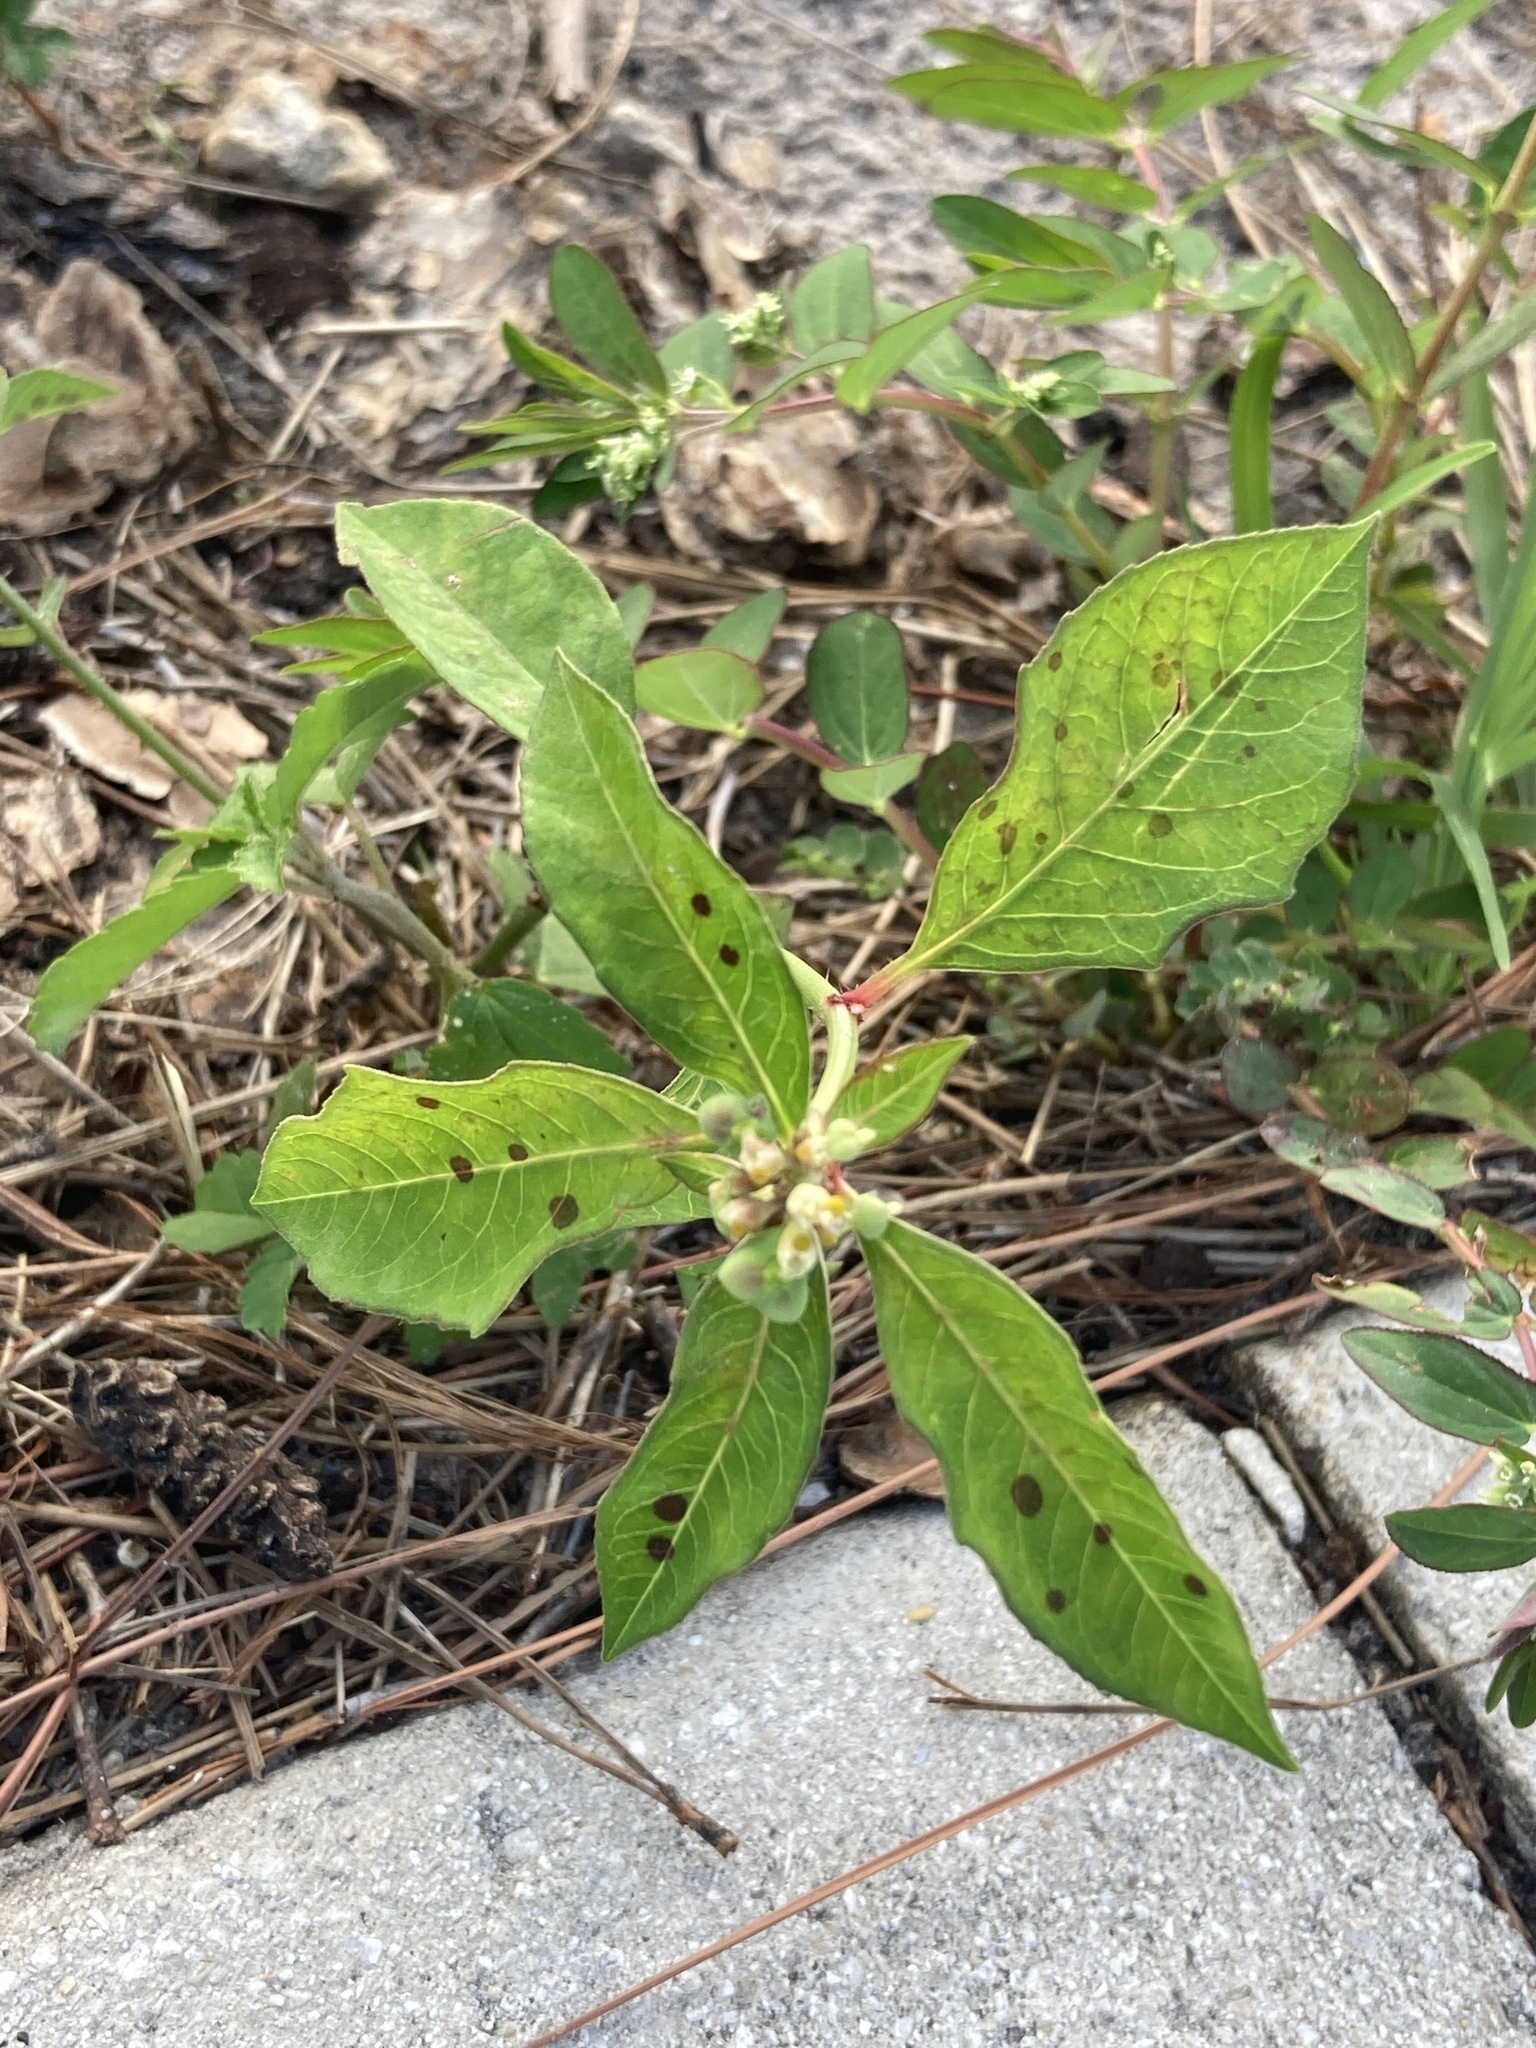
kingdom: Plantae
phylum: Tracheophyta
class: Magnoliopsida
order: Malpighiales
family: Euphorbiaceae
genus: Euphorbia
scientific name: Euphorbia heterophylla
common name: Mexican fireplant
